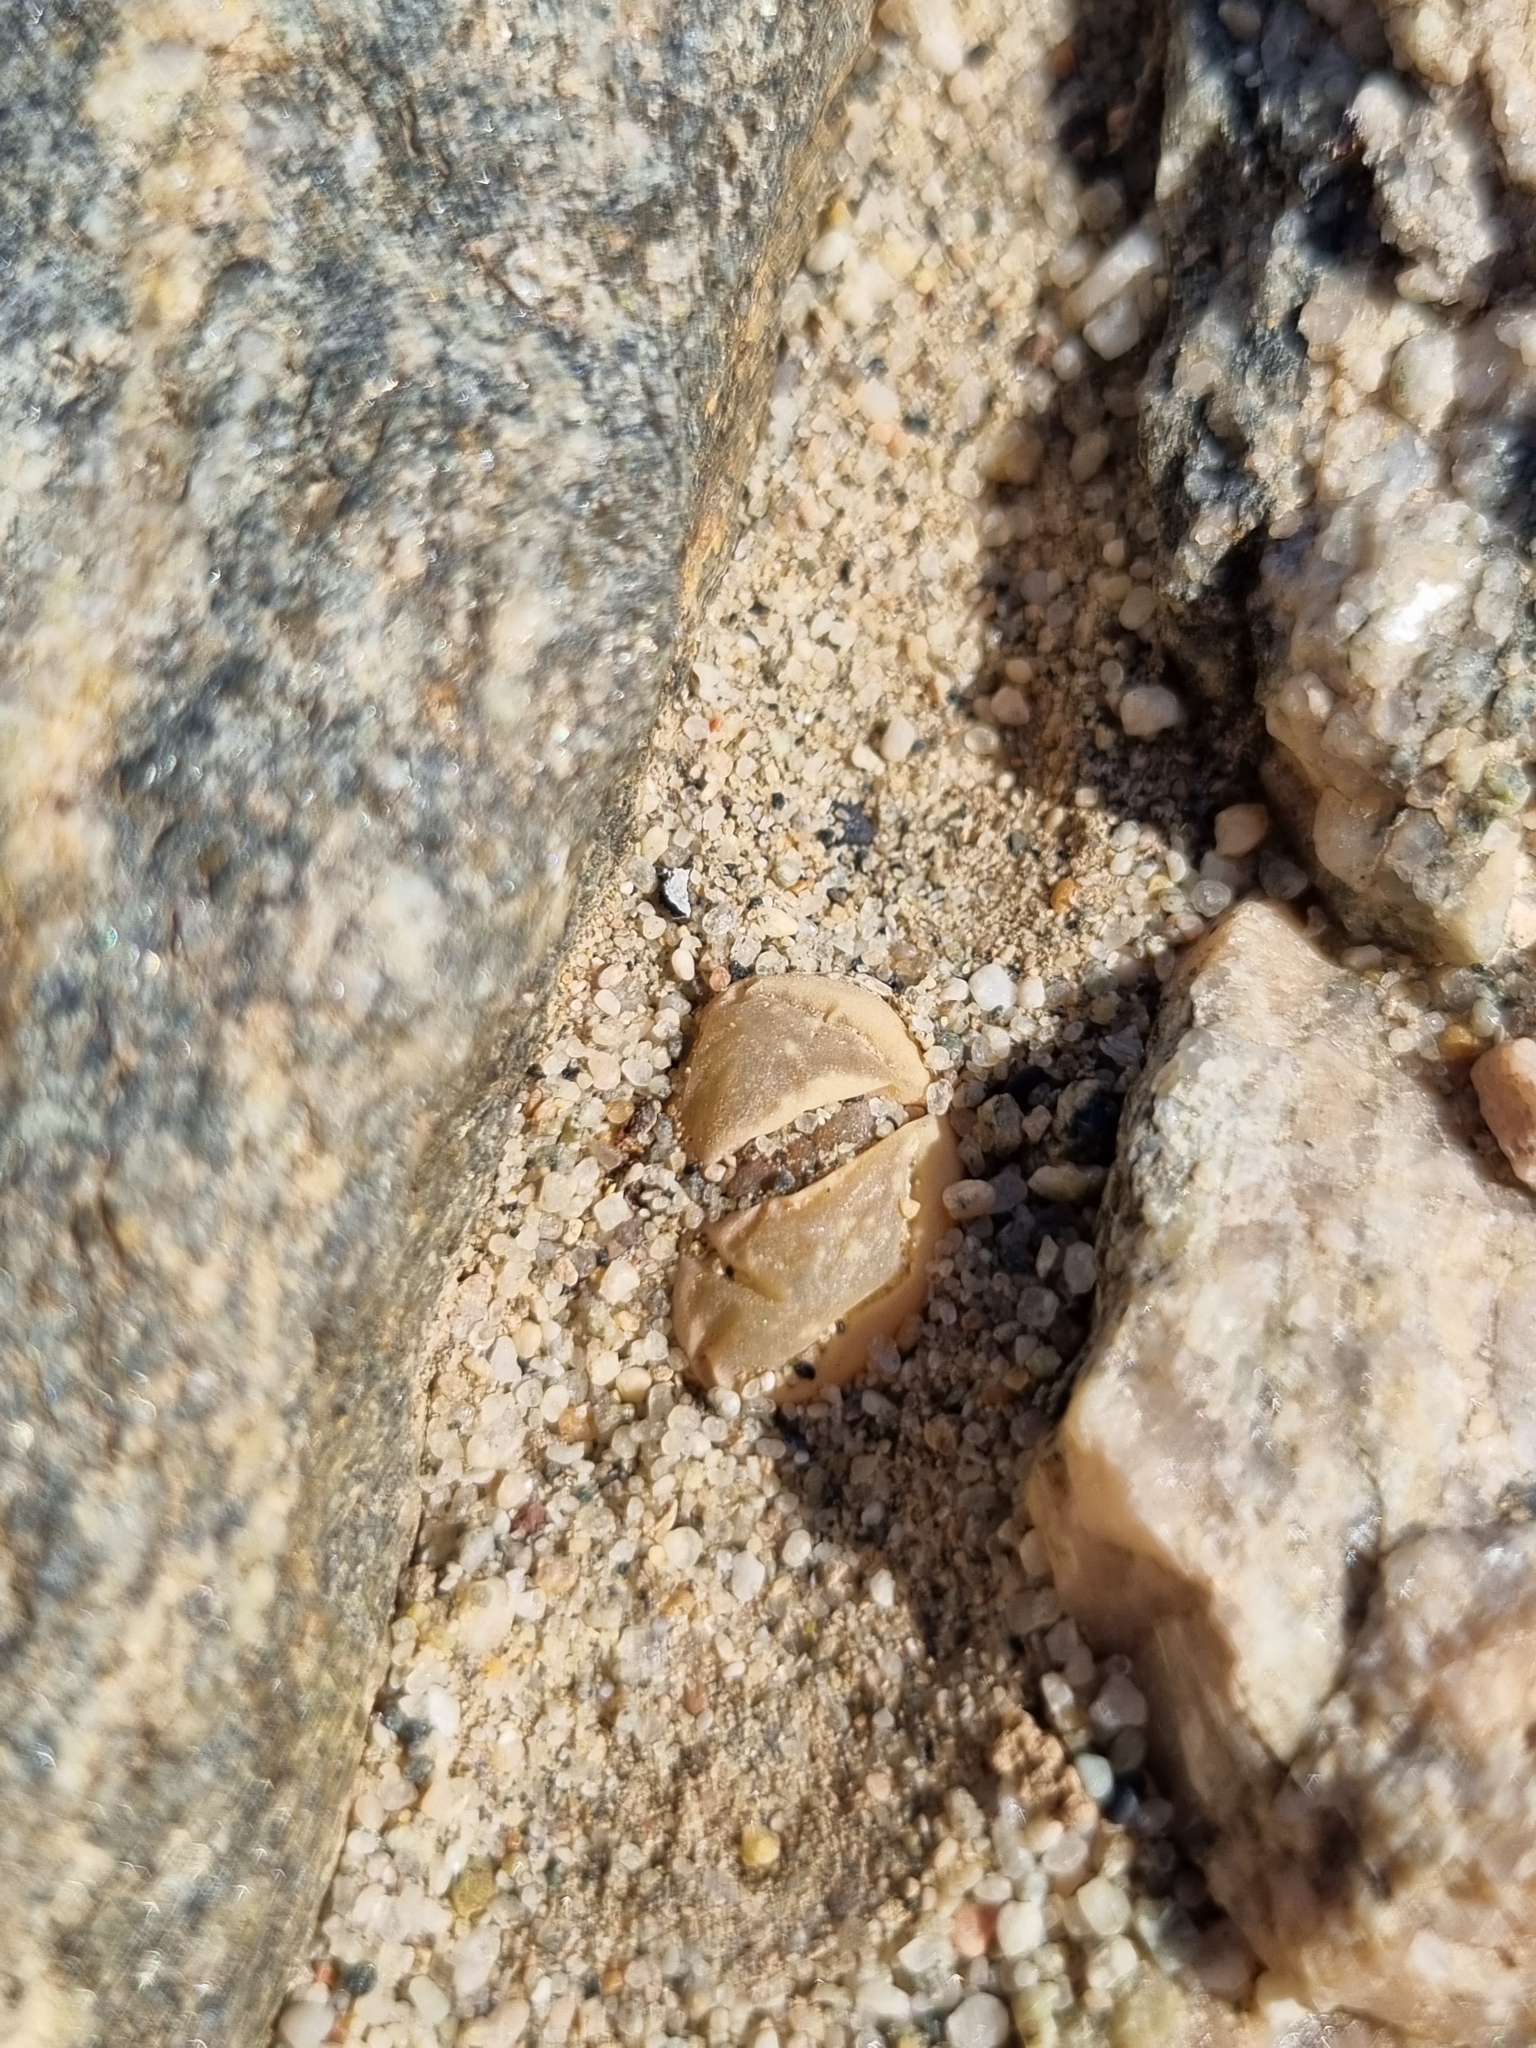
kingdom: Plantae
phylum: Tracheophyta
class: Magnoliopsida
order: Caryophyllales
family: Aizoaceae
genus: Lithops
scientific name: Lithops optica
